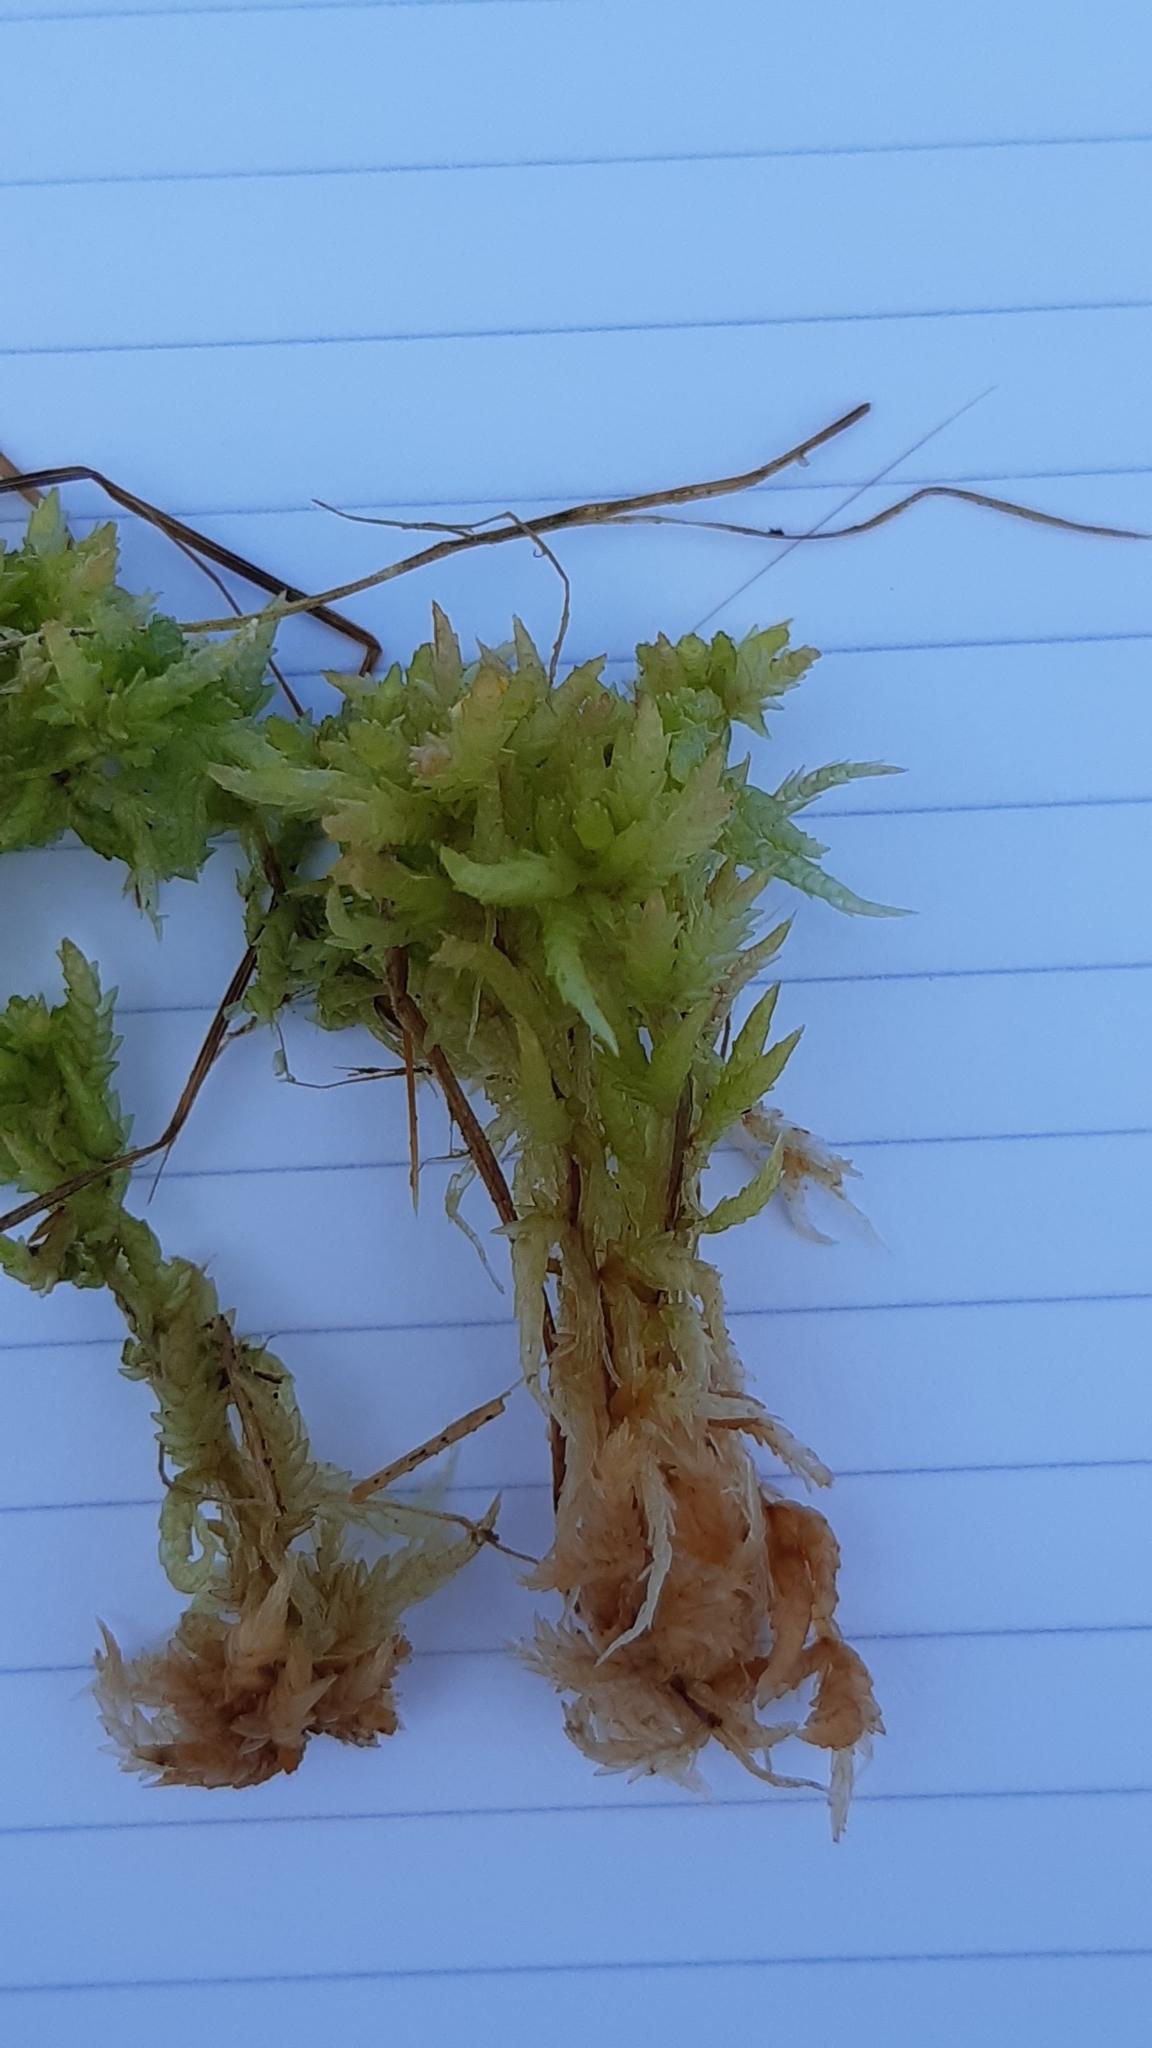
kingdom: Plantae
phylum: Bryophyta
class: Sphagnopsida
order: Sphagnales
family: Sphagnaceae
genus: Sphagnum
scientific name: Sphagnum palustre
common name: Blunt-leaved bog-moss
